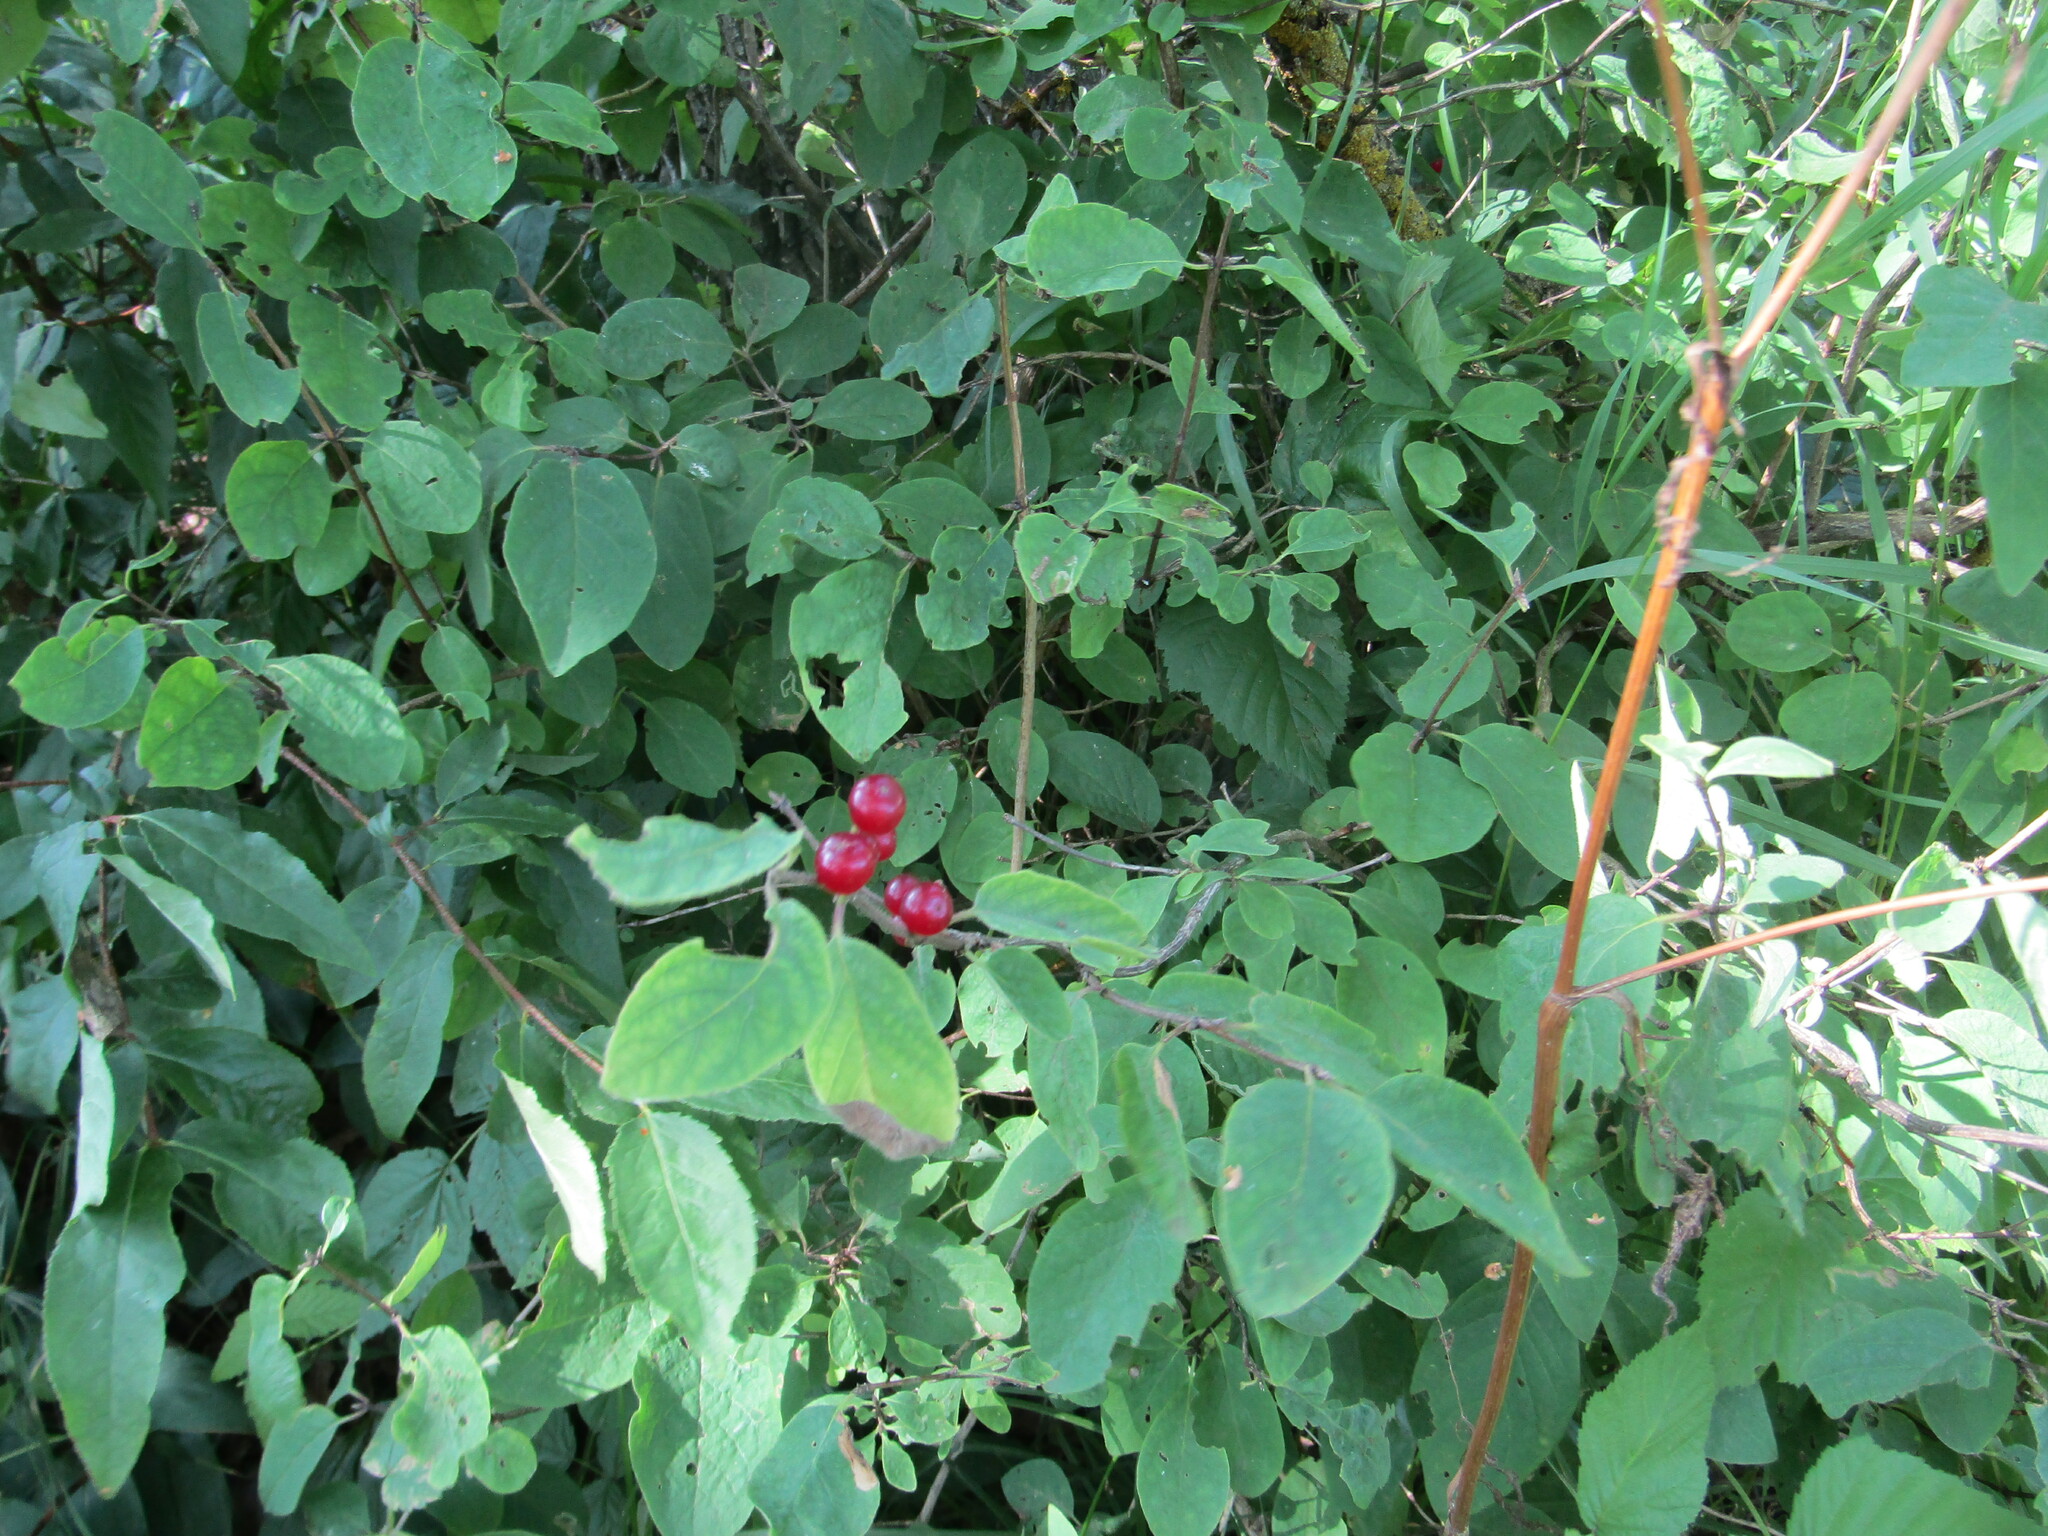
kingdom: Plantae
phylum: Tracheophyta
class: Magnoliopsida
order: Dipsacales
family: Caprifoliaceae
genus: Lonicera
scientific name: Lonicera xylosteum
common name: Fly honeysuckle
